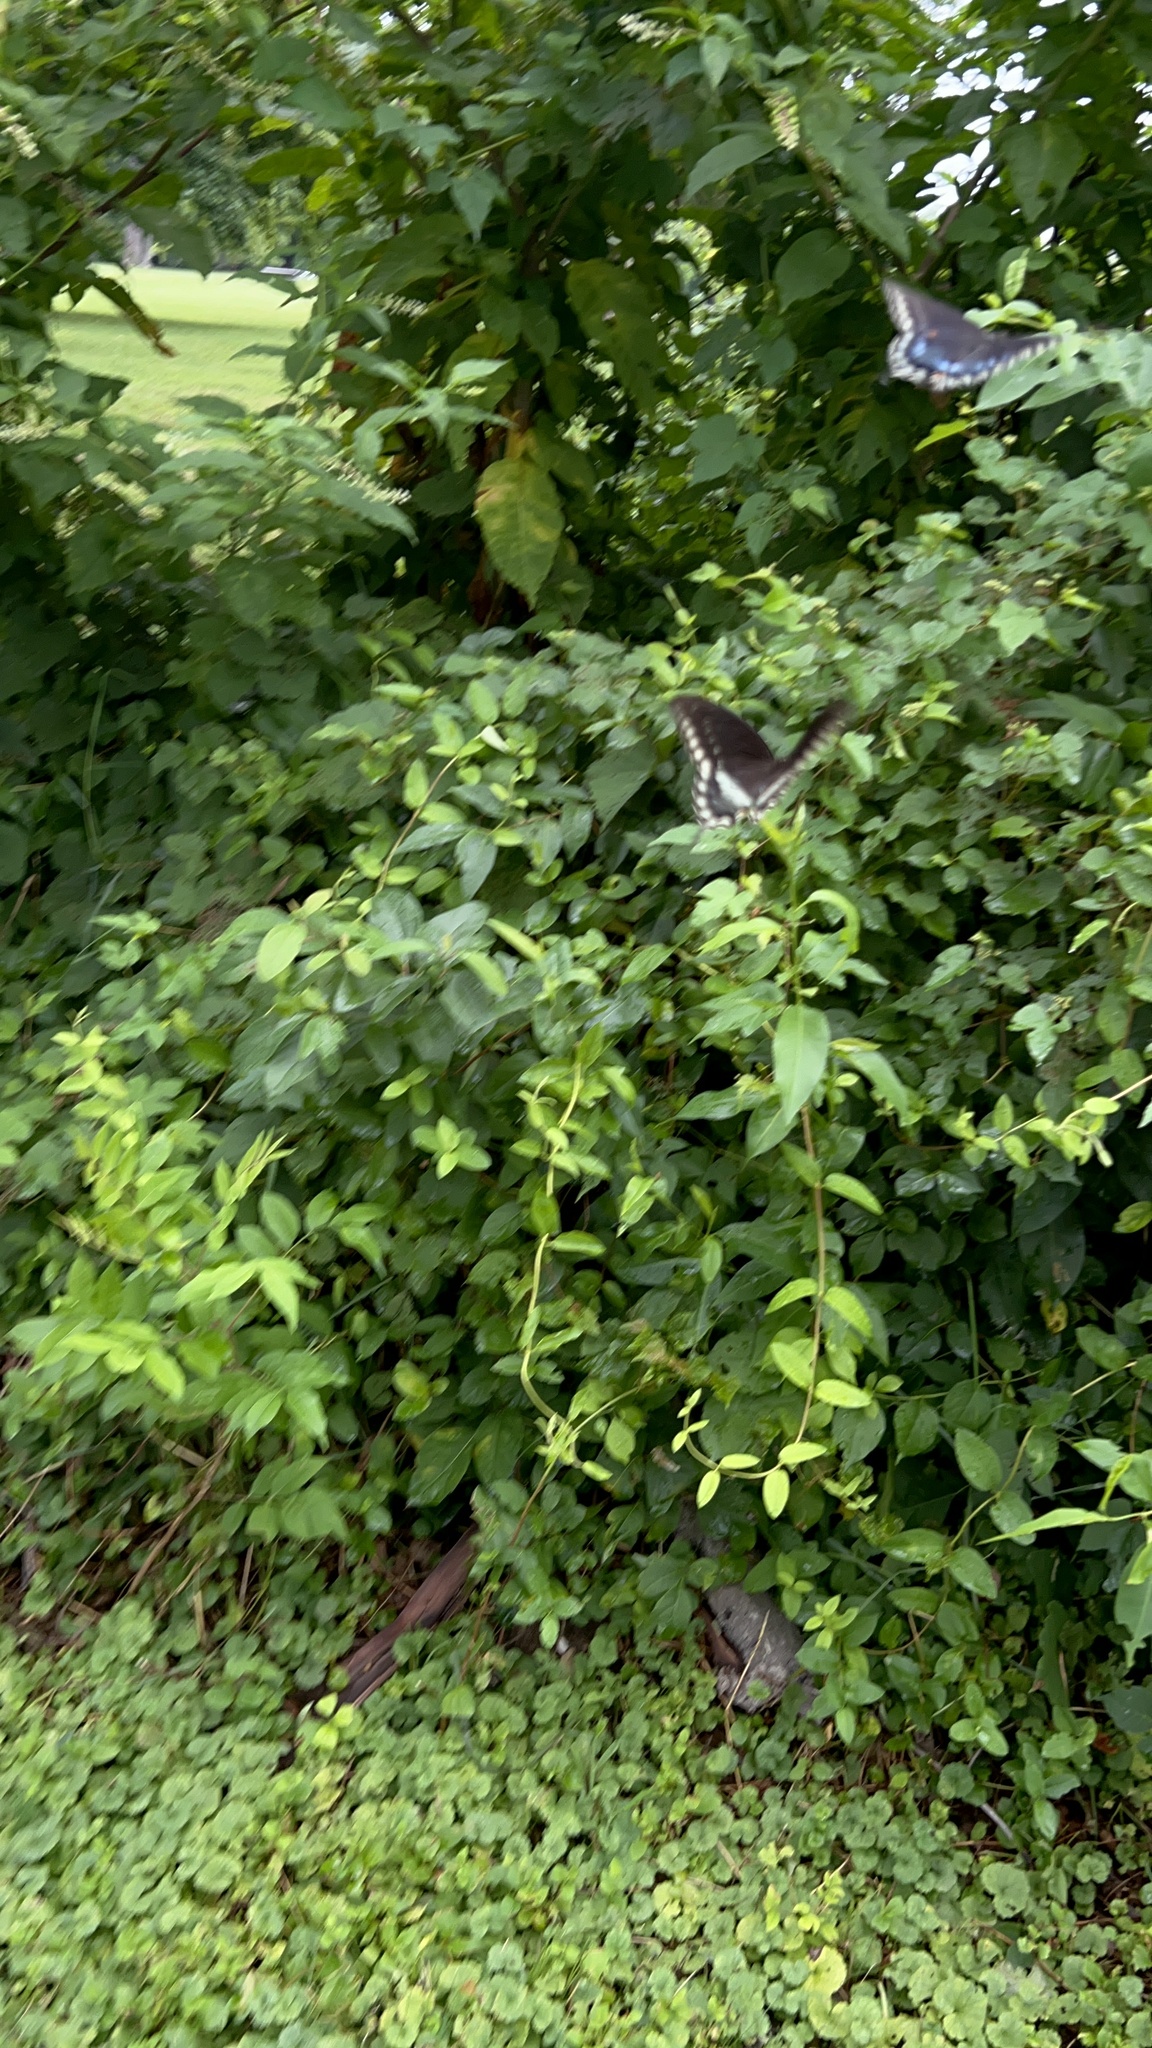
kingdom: Animalia
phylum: Arthropoda
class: Insecta
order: Lepidoptera
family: Papilionidae
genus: Papilio
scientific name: Papilio troilus
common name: Spicebush swallowtail
